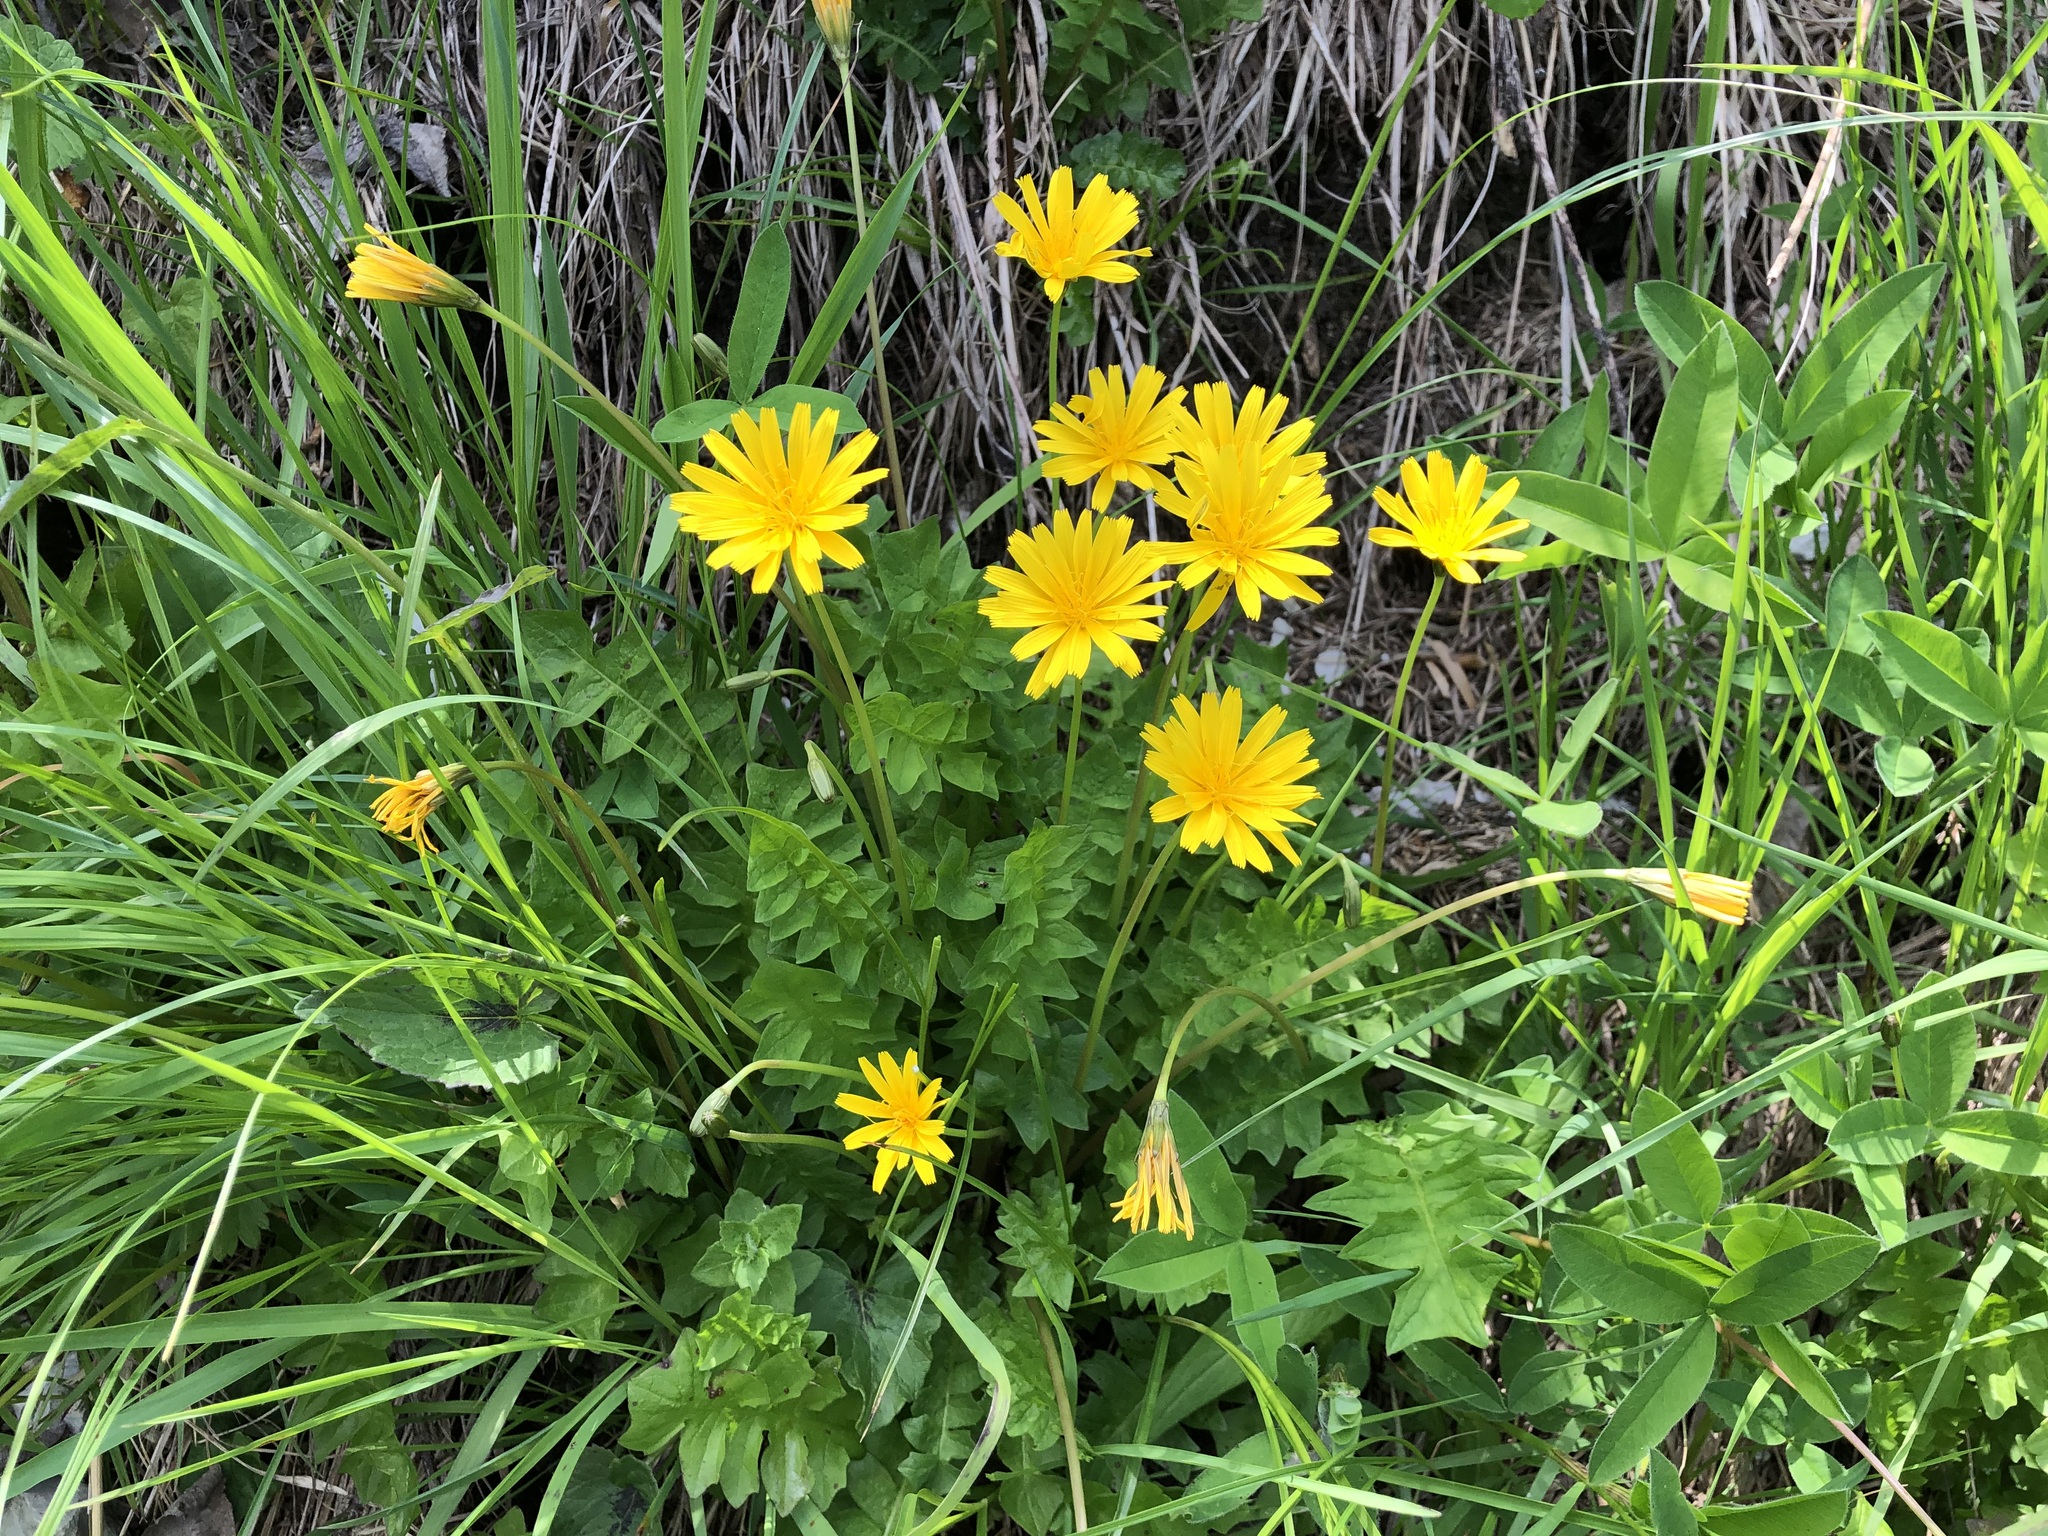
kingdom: Plantae
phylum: Tracheophyta
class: Magnoliopsida
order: Asterales
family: Asteraceae
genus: Aposeris
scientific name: Aposeris foetida
